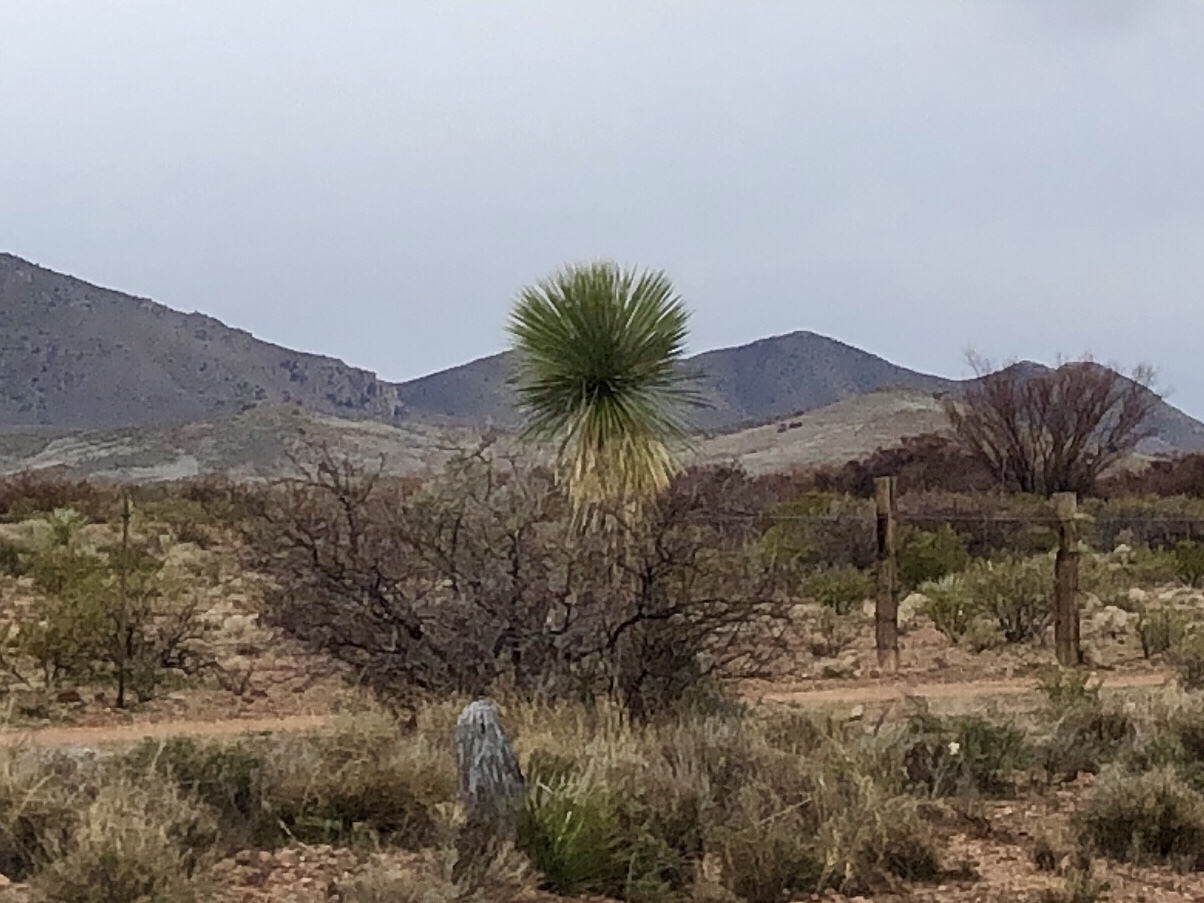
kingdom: Plantae
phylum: Tracheophyta
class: Liliopsida
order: Asparagales
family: Asparagaceae
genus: Yucca
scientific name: Yucca elata
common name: Palmella
